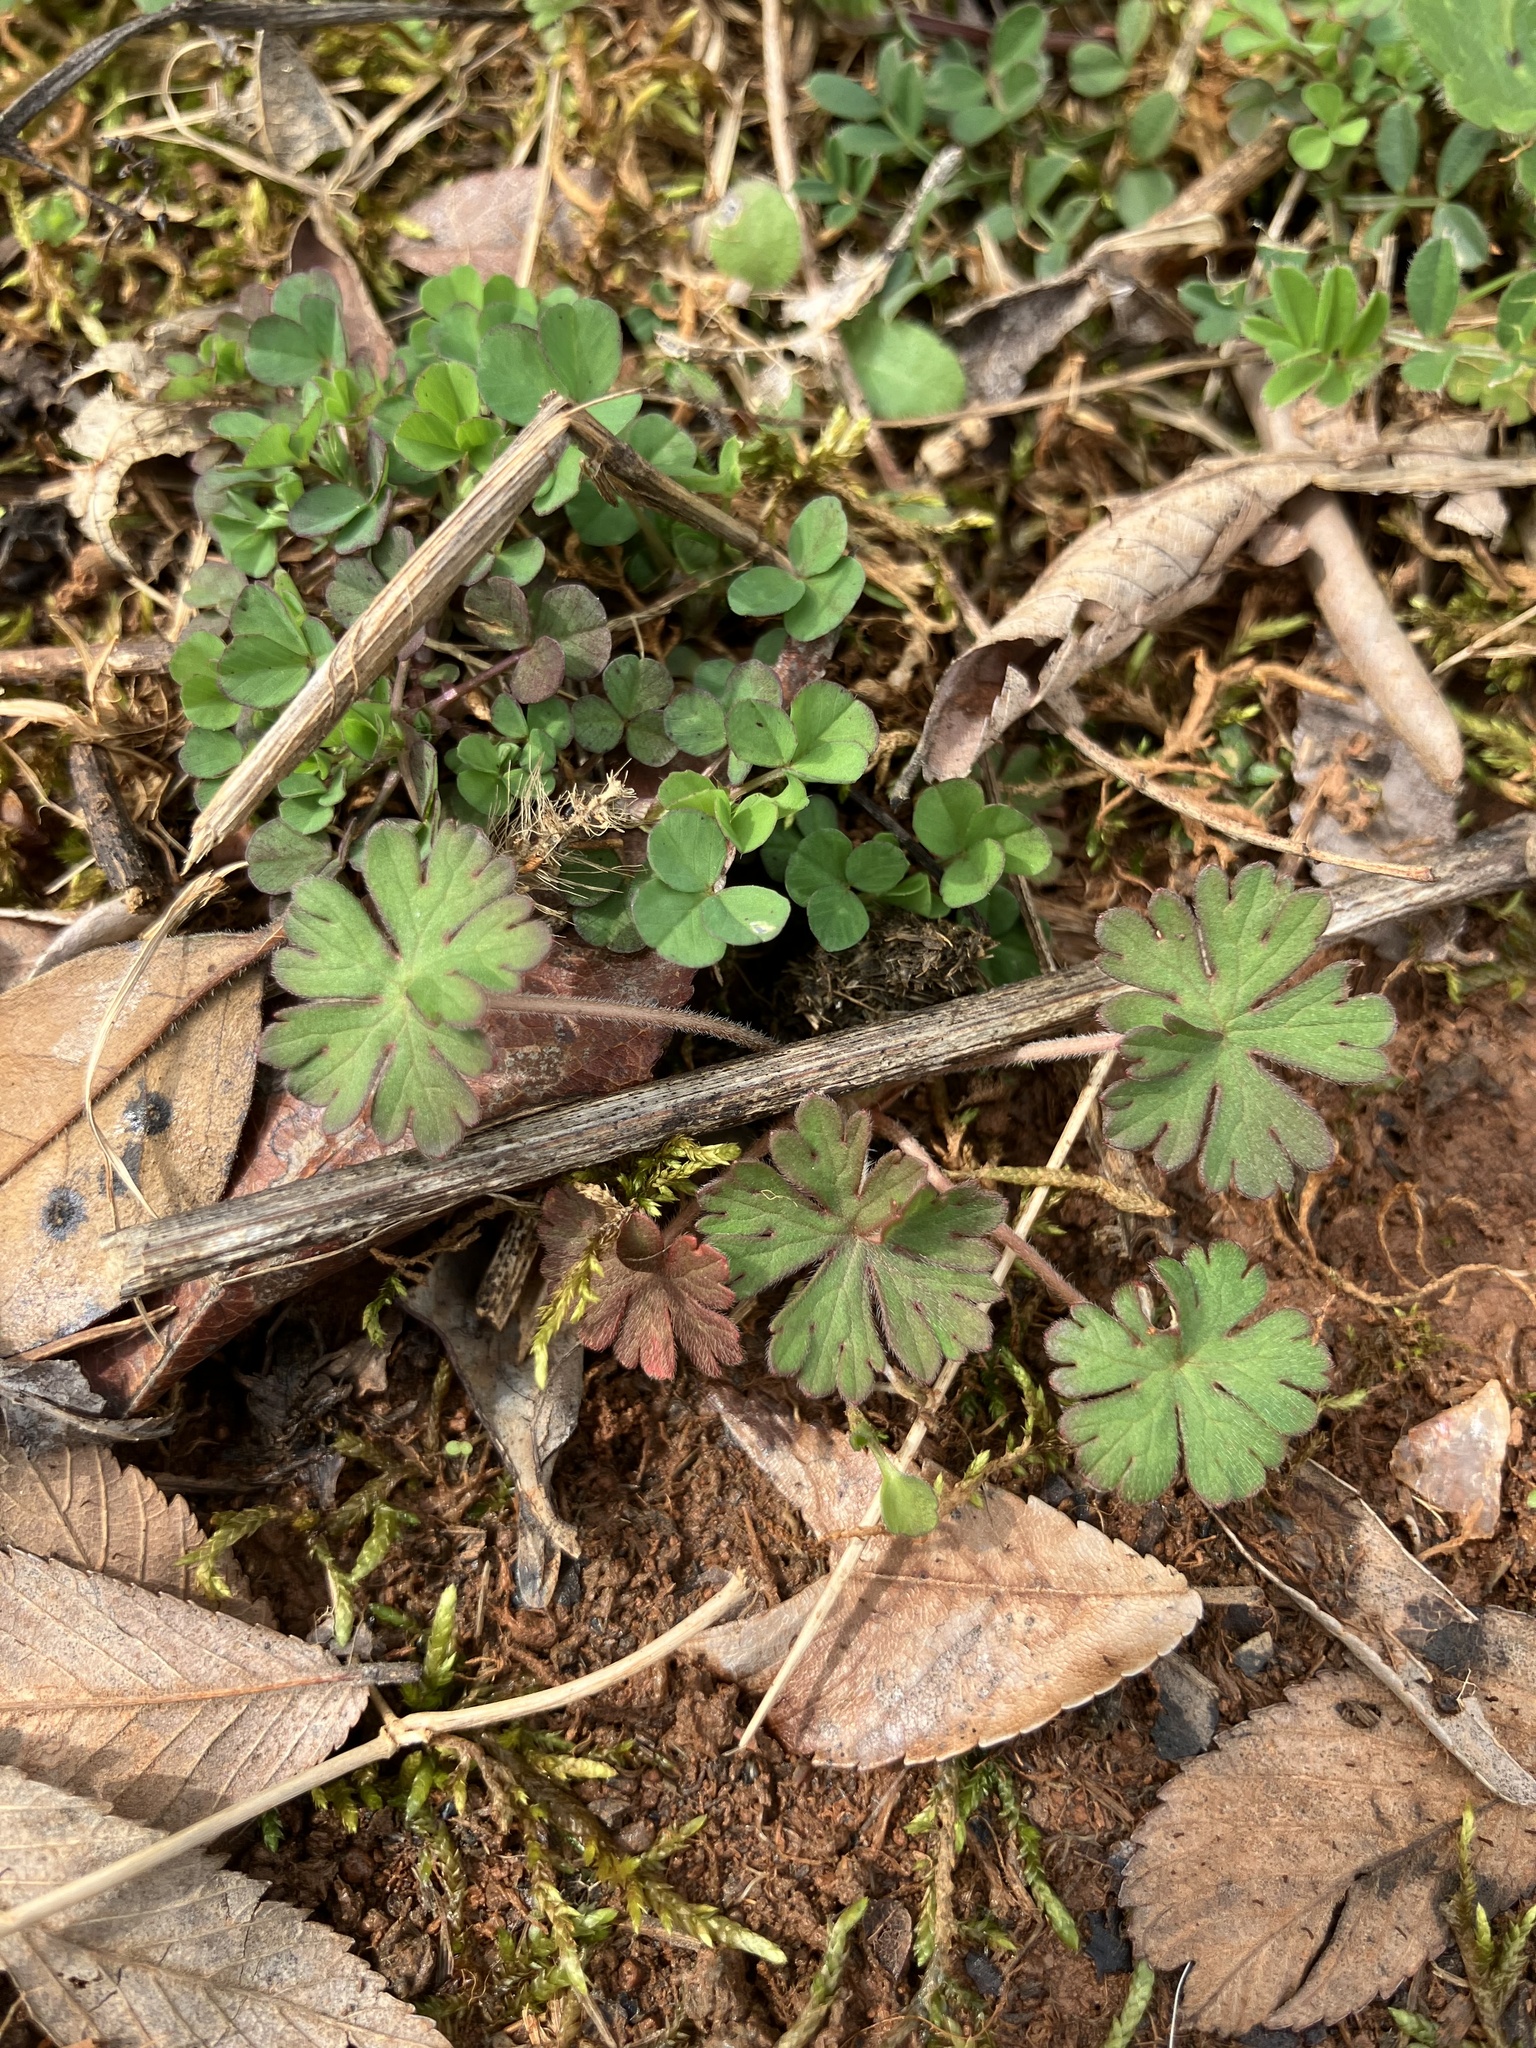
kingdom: Plantae
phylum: Tracheophyta
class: Magnoliopsida
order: Geraniales
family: Geraniaceae
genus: Geranium
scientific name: Geranium carolinianum
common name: Carolina crane's-bill
